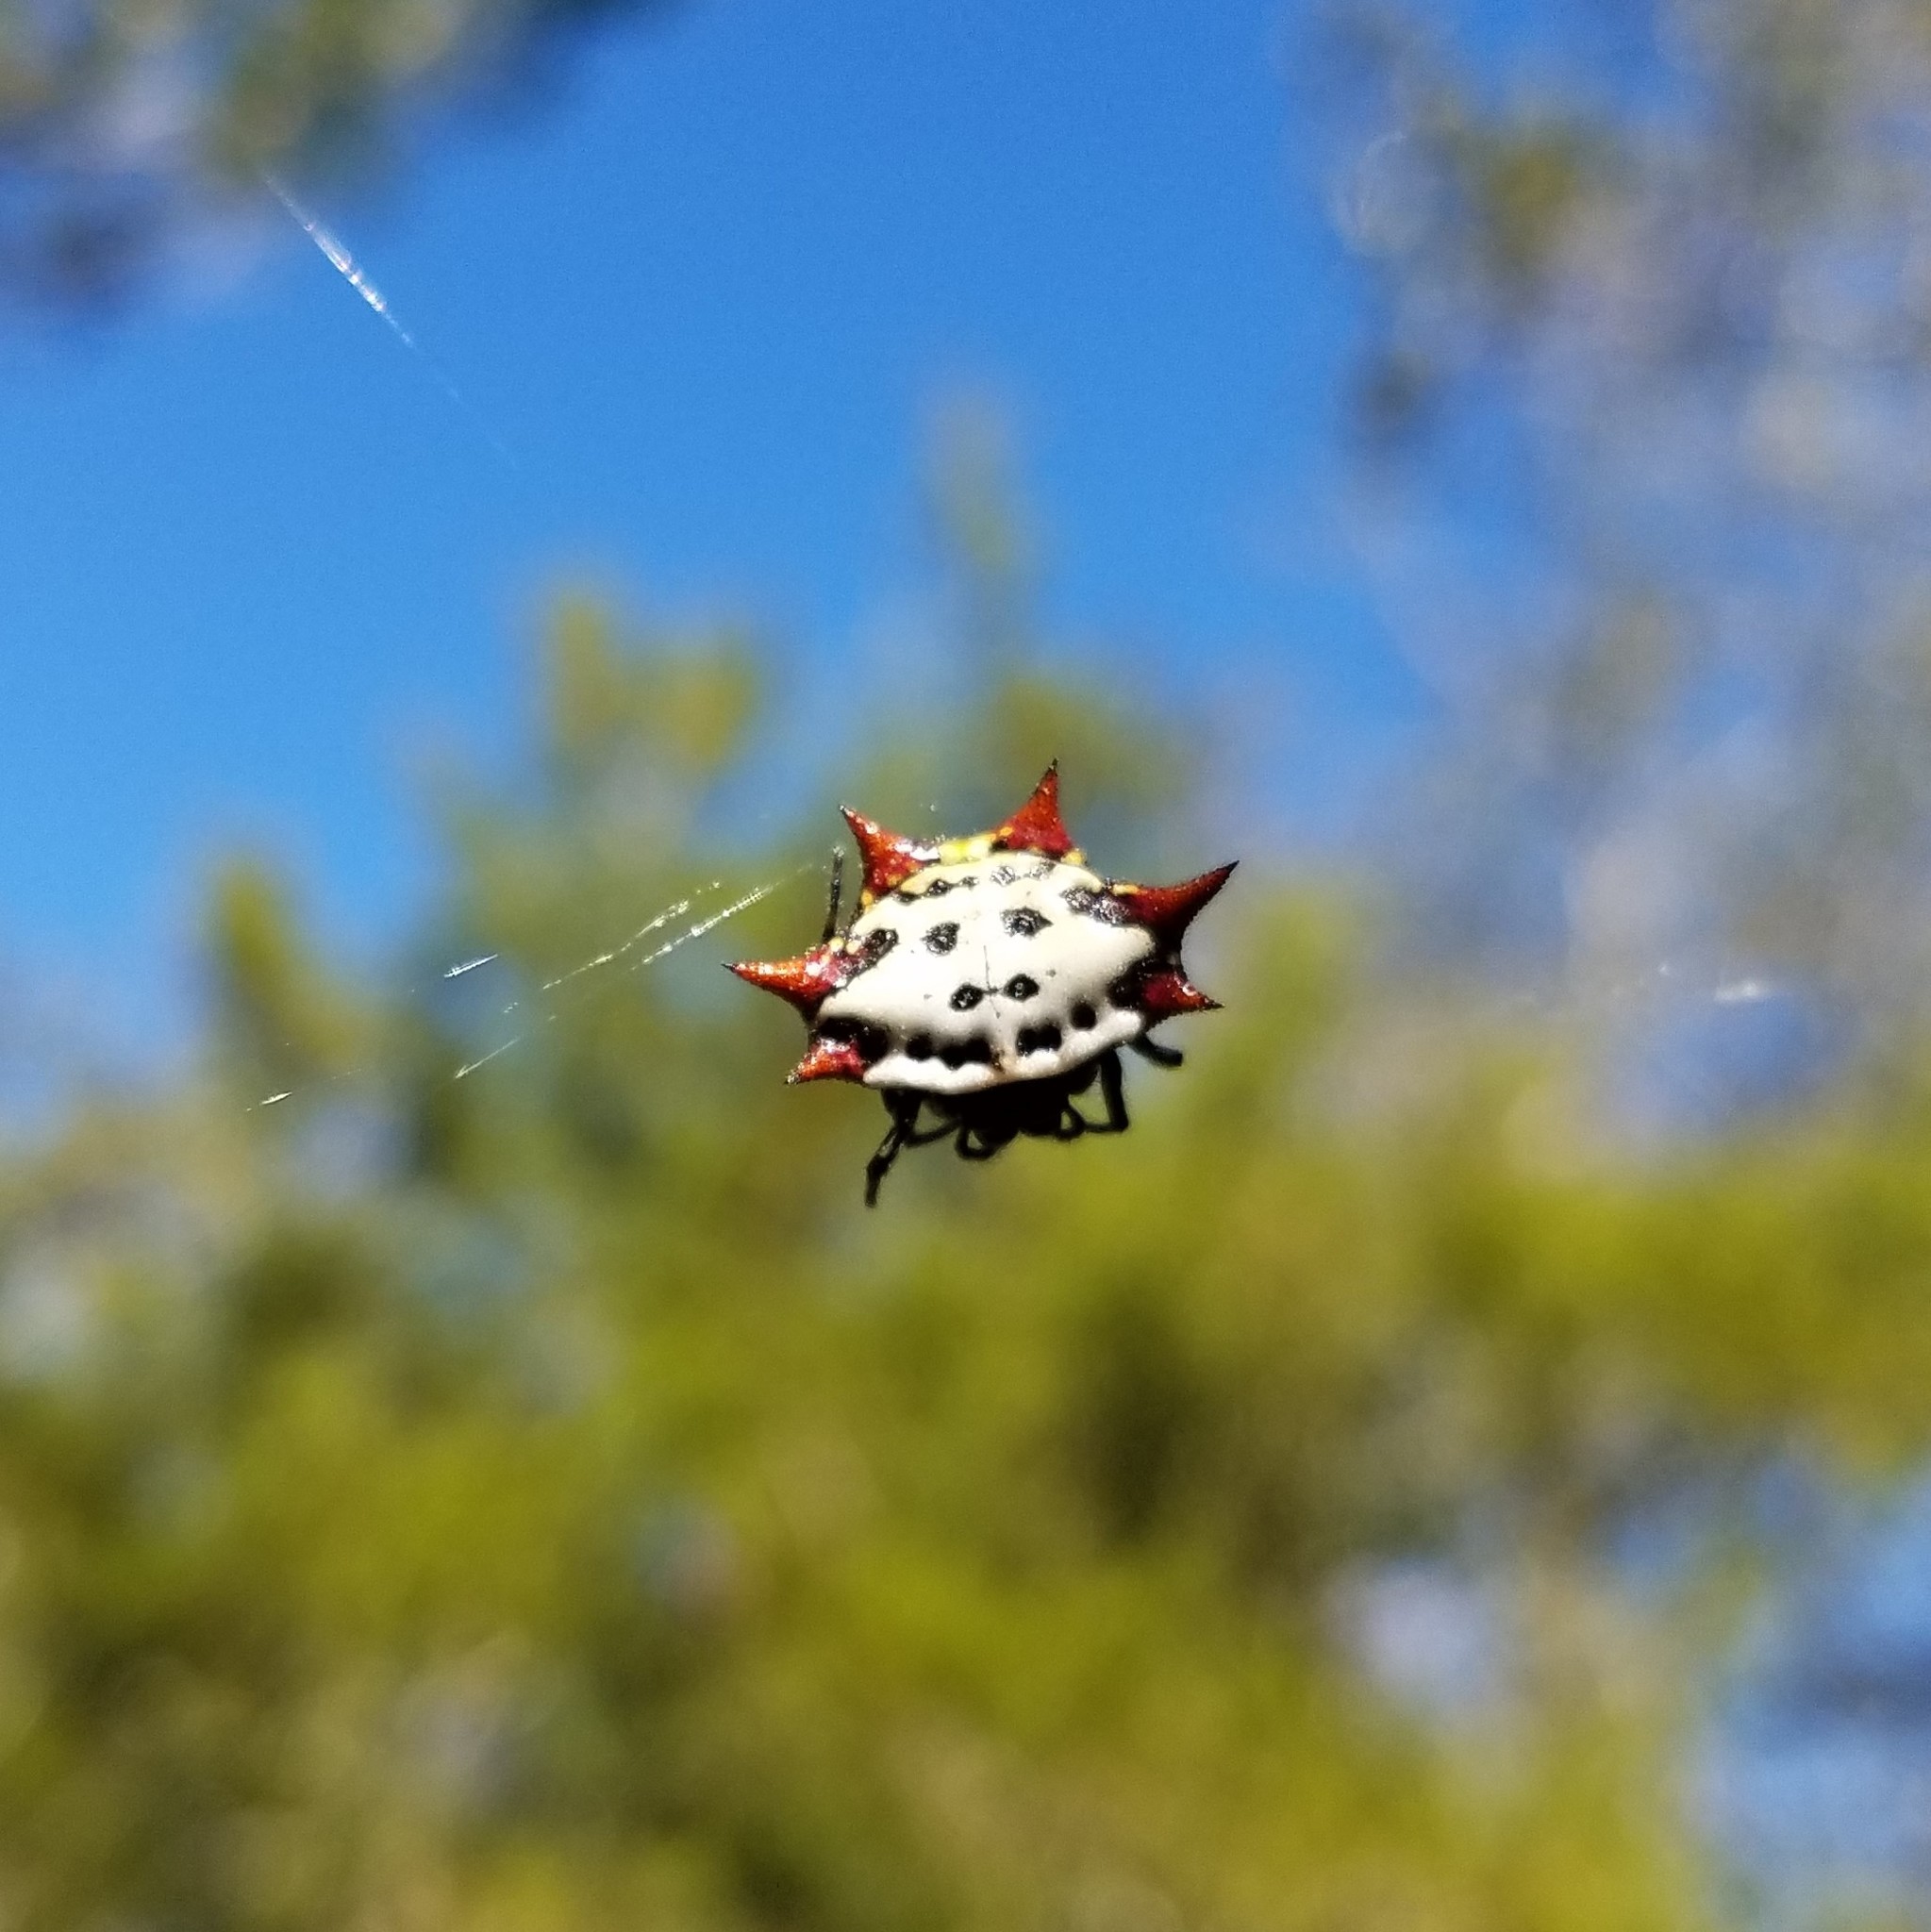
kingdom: Animalia
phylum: Arthropoda
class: Arachnida
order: Araneae
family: Araneidae
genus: Gasteracantha
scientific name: Gasteracantha cancriformis
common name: Orb weavers
